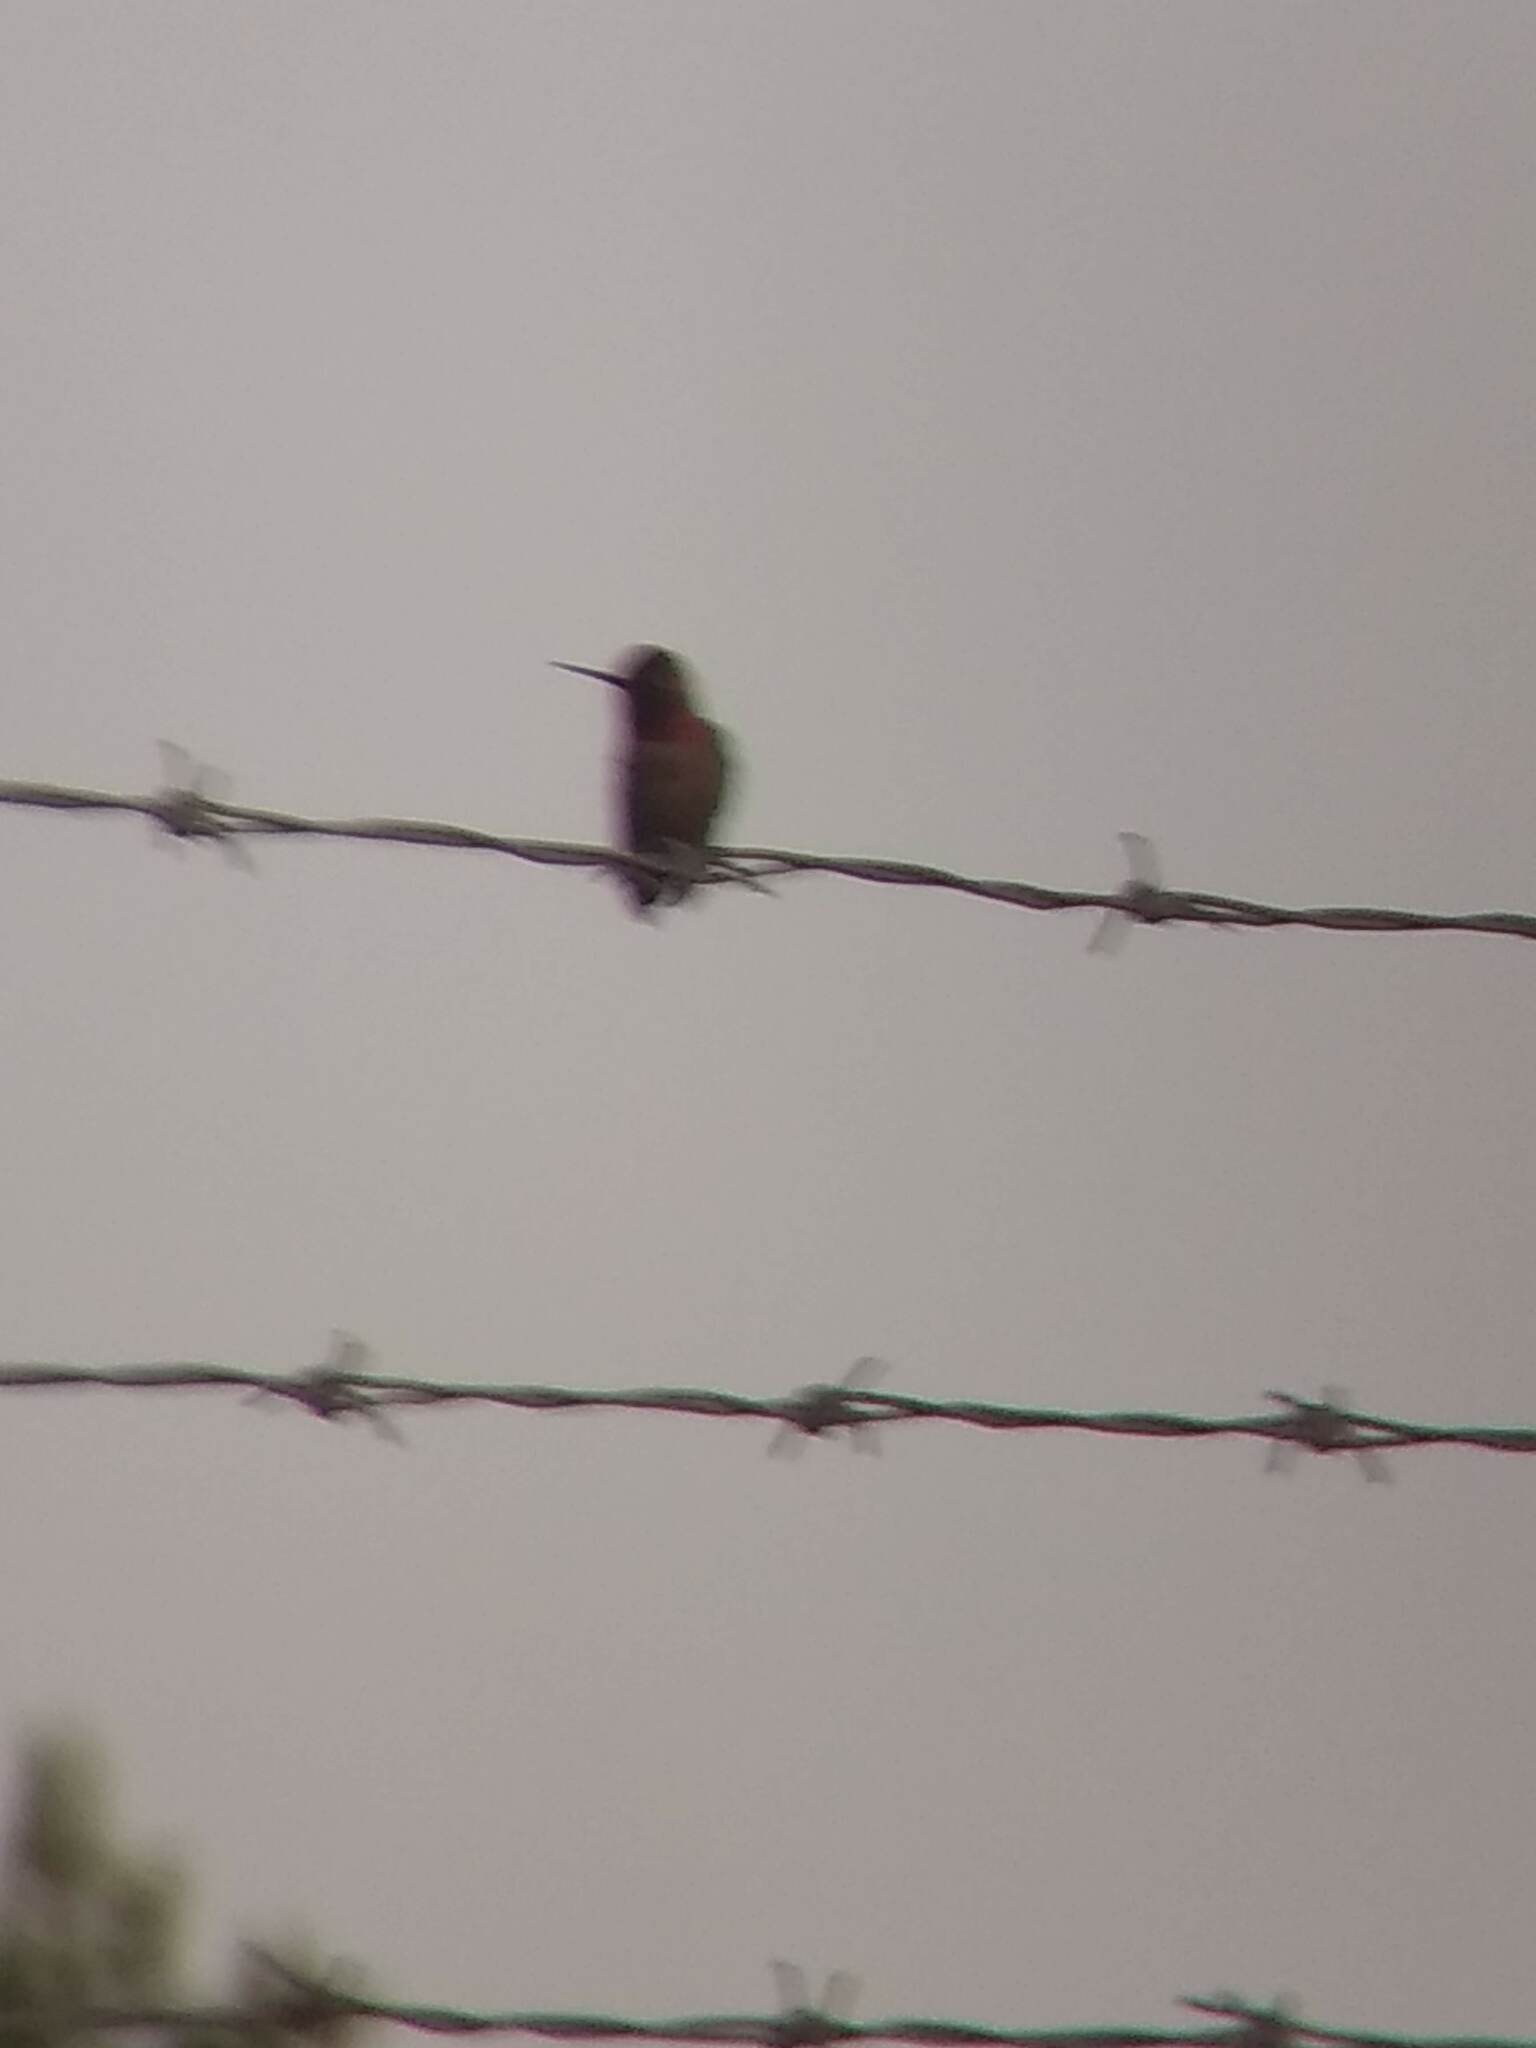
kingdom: Animalia
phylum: Chordata
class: Aves
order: Apodiformes
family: Trochilidae
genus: Calypte
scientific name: Calypte anna
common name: Anna's hummingbird
